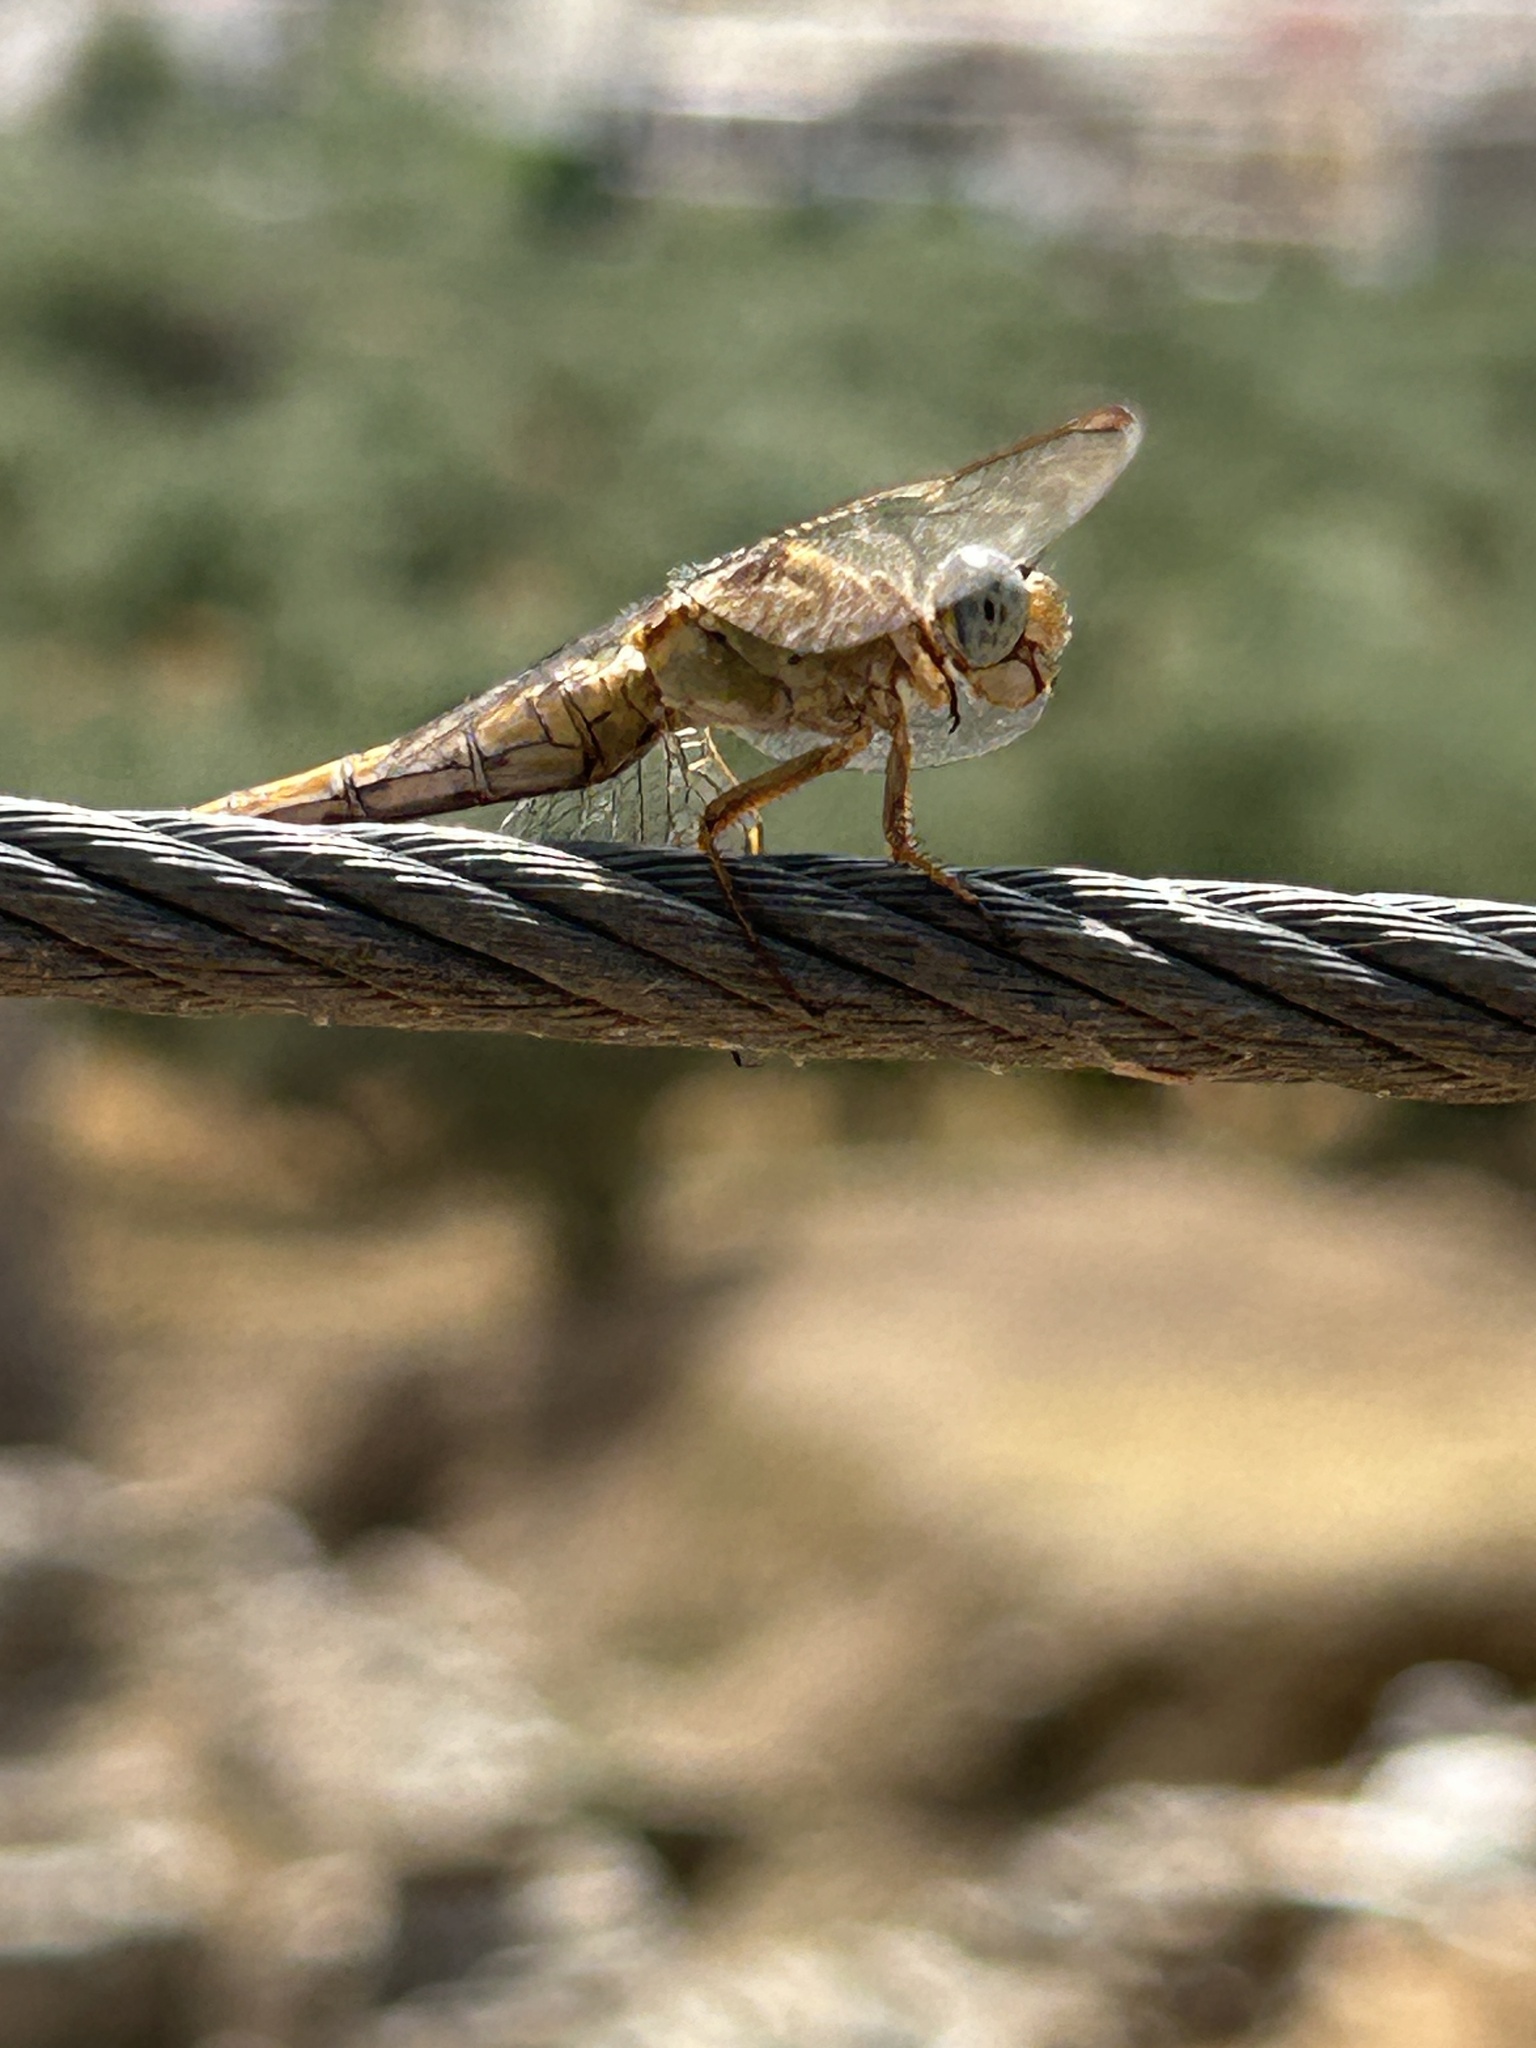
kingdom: Animalia
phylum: Arthropoda
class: Insecta
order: Odonata
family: Libellulidae
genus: Orthetrum
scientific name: Orthetrum coerulescens
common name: Keeled skimmer
